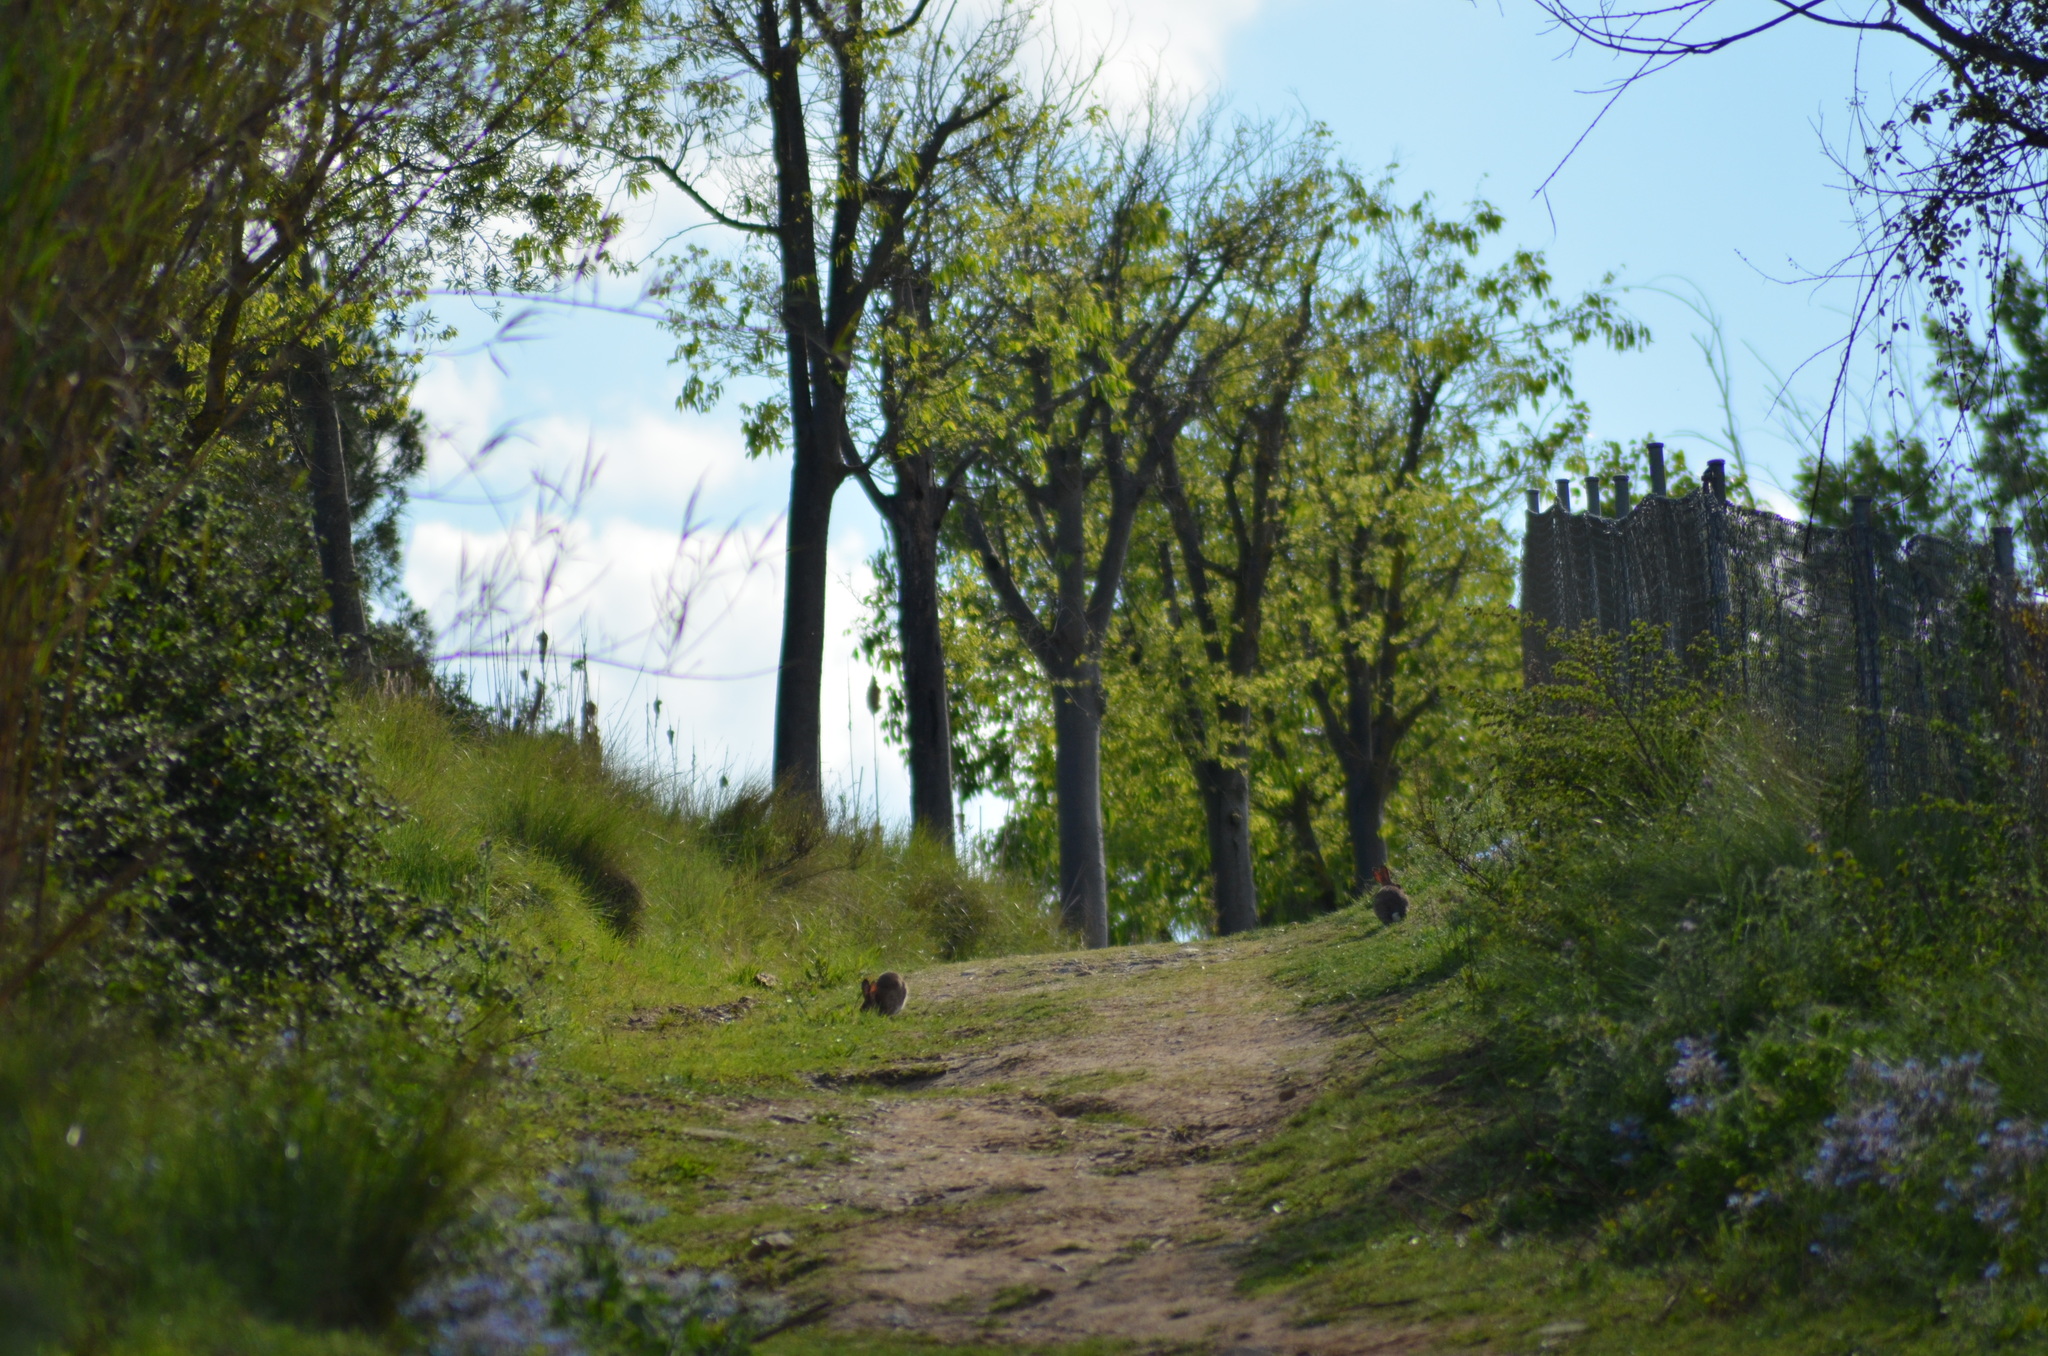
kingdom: Animalia
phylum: Chordata
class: Mammalia
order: Lagomorpha
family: Leporidae
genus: Oryctolagus
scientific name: Oryctolagus cuniculus
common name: European rabbit
